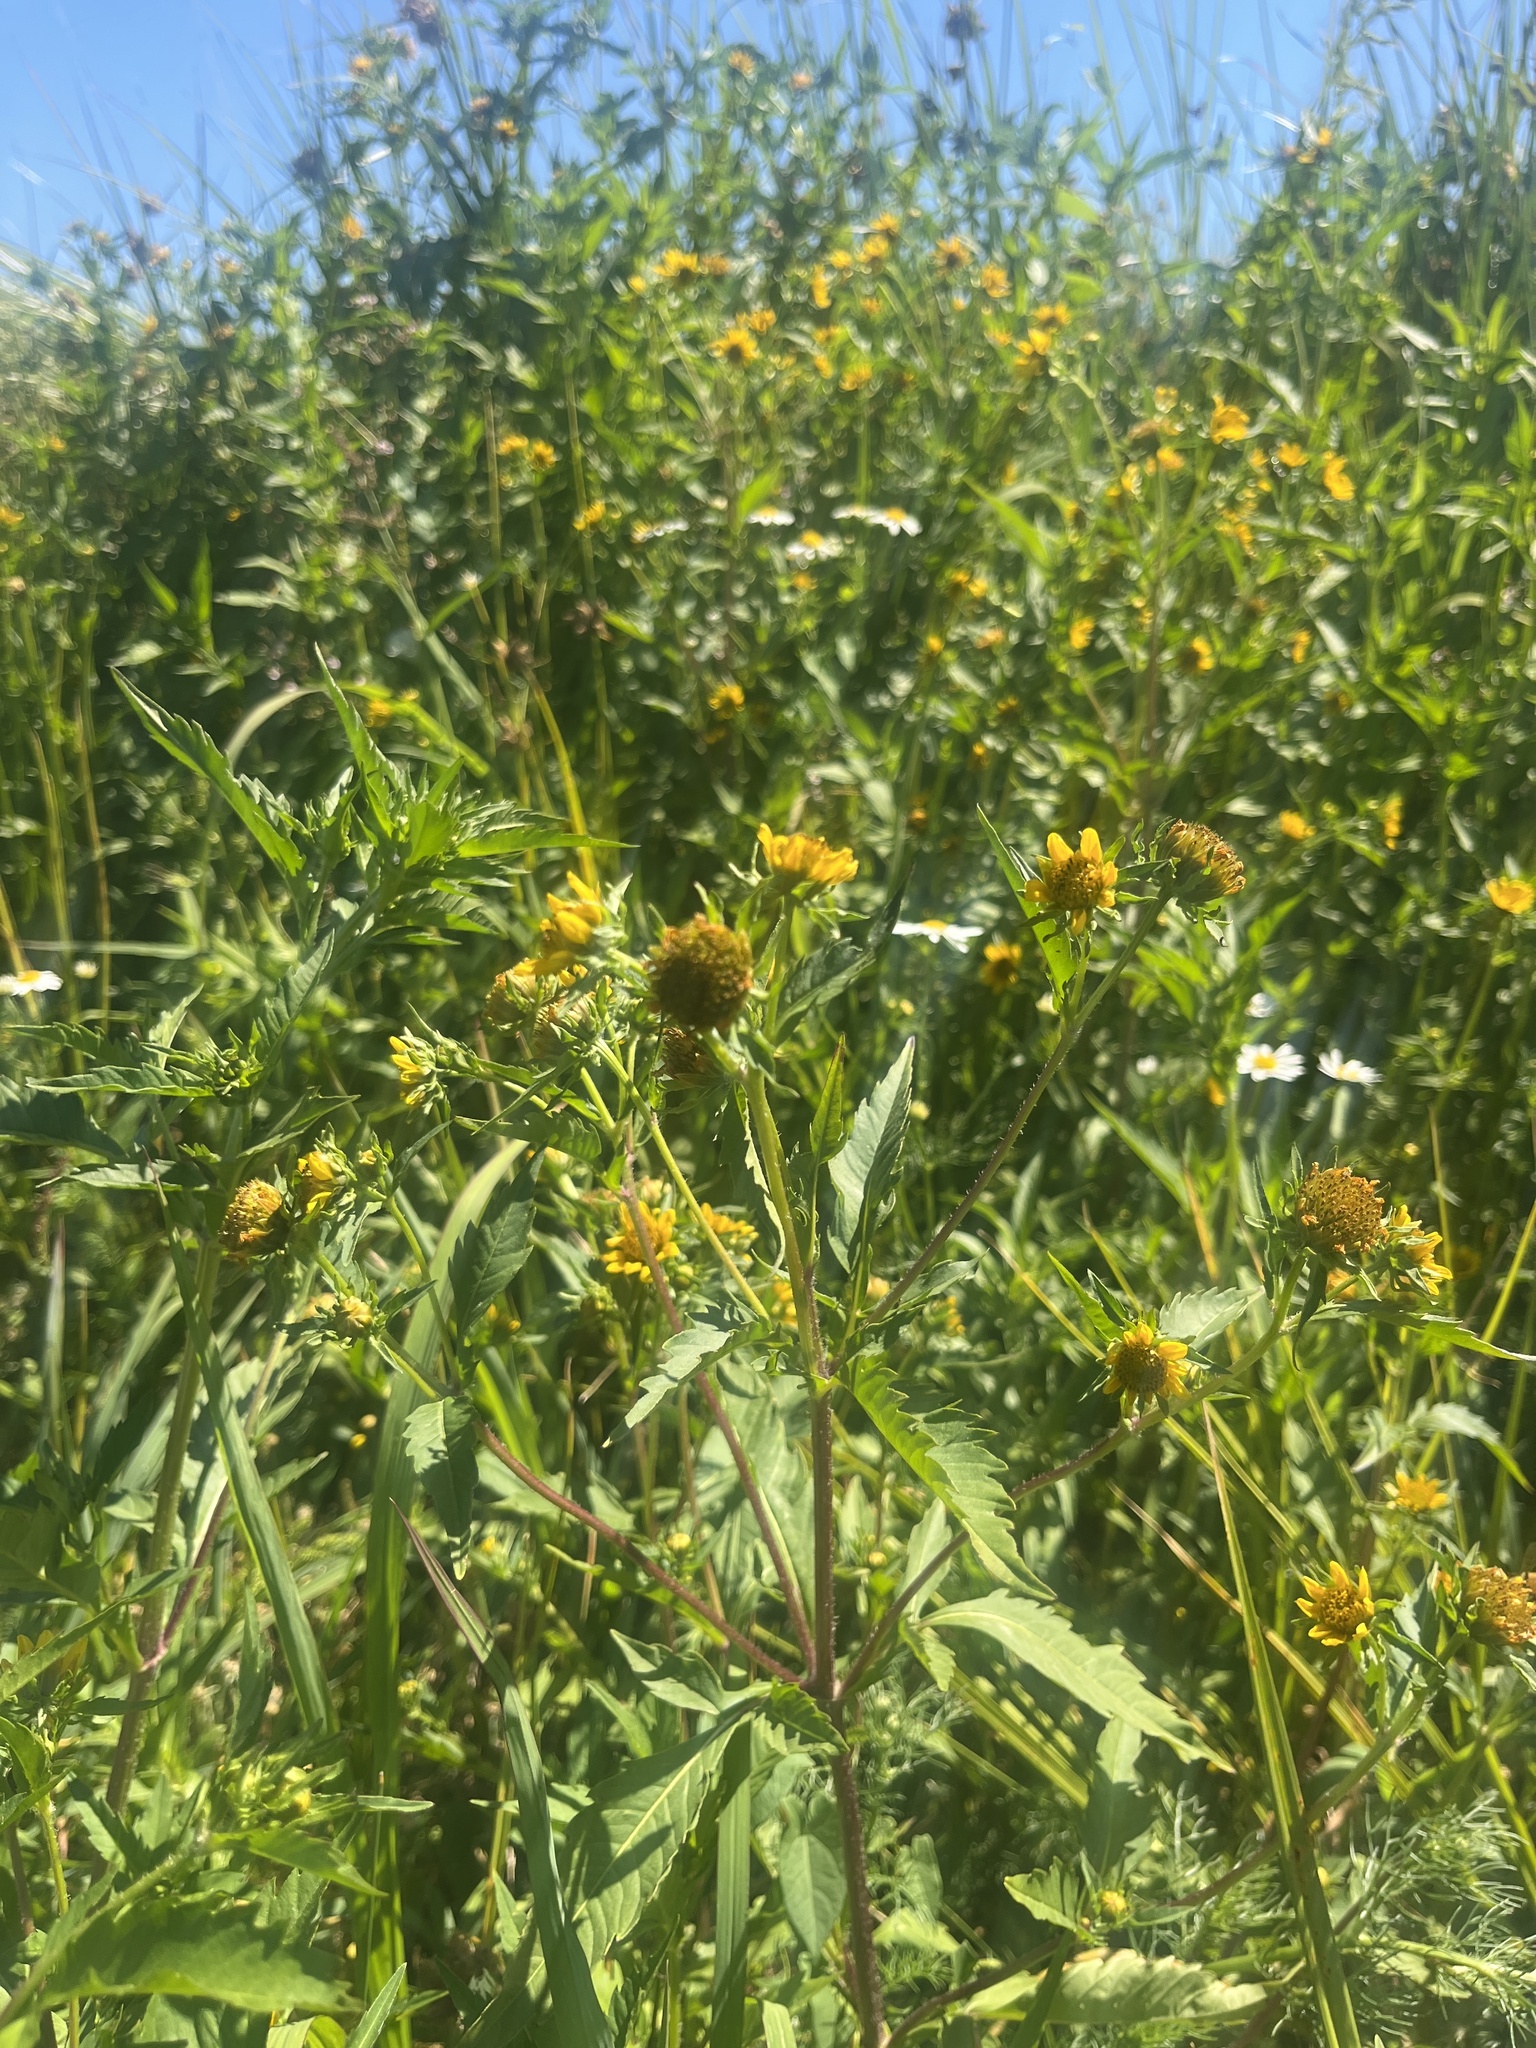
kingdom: Plantae
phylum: Tracheophyta
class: Magnoliopsida
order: Asterales
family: Asteraceae
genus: Bidens
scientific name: Bidens amplissima
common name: Vancouver island beggarticks
